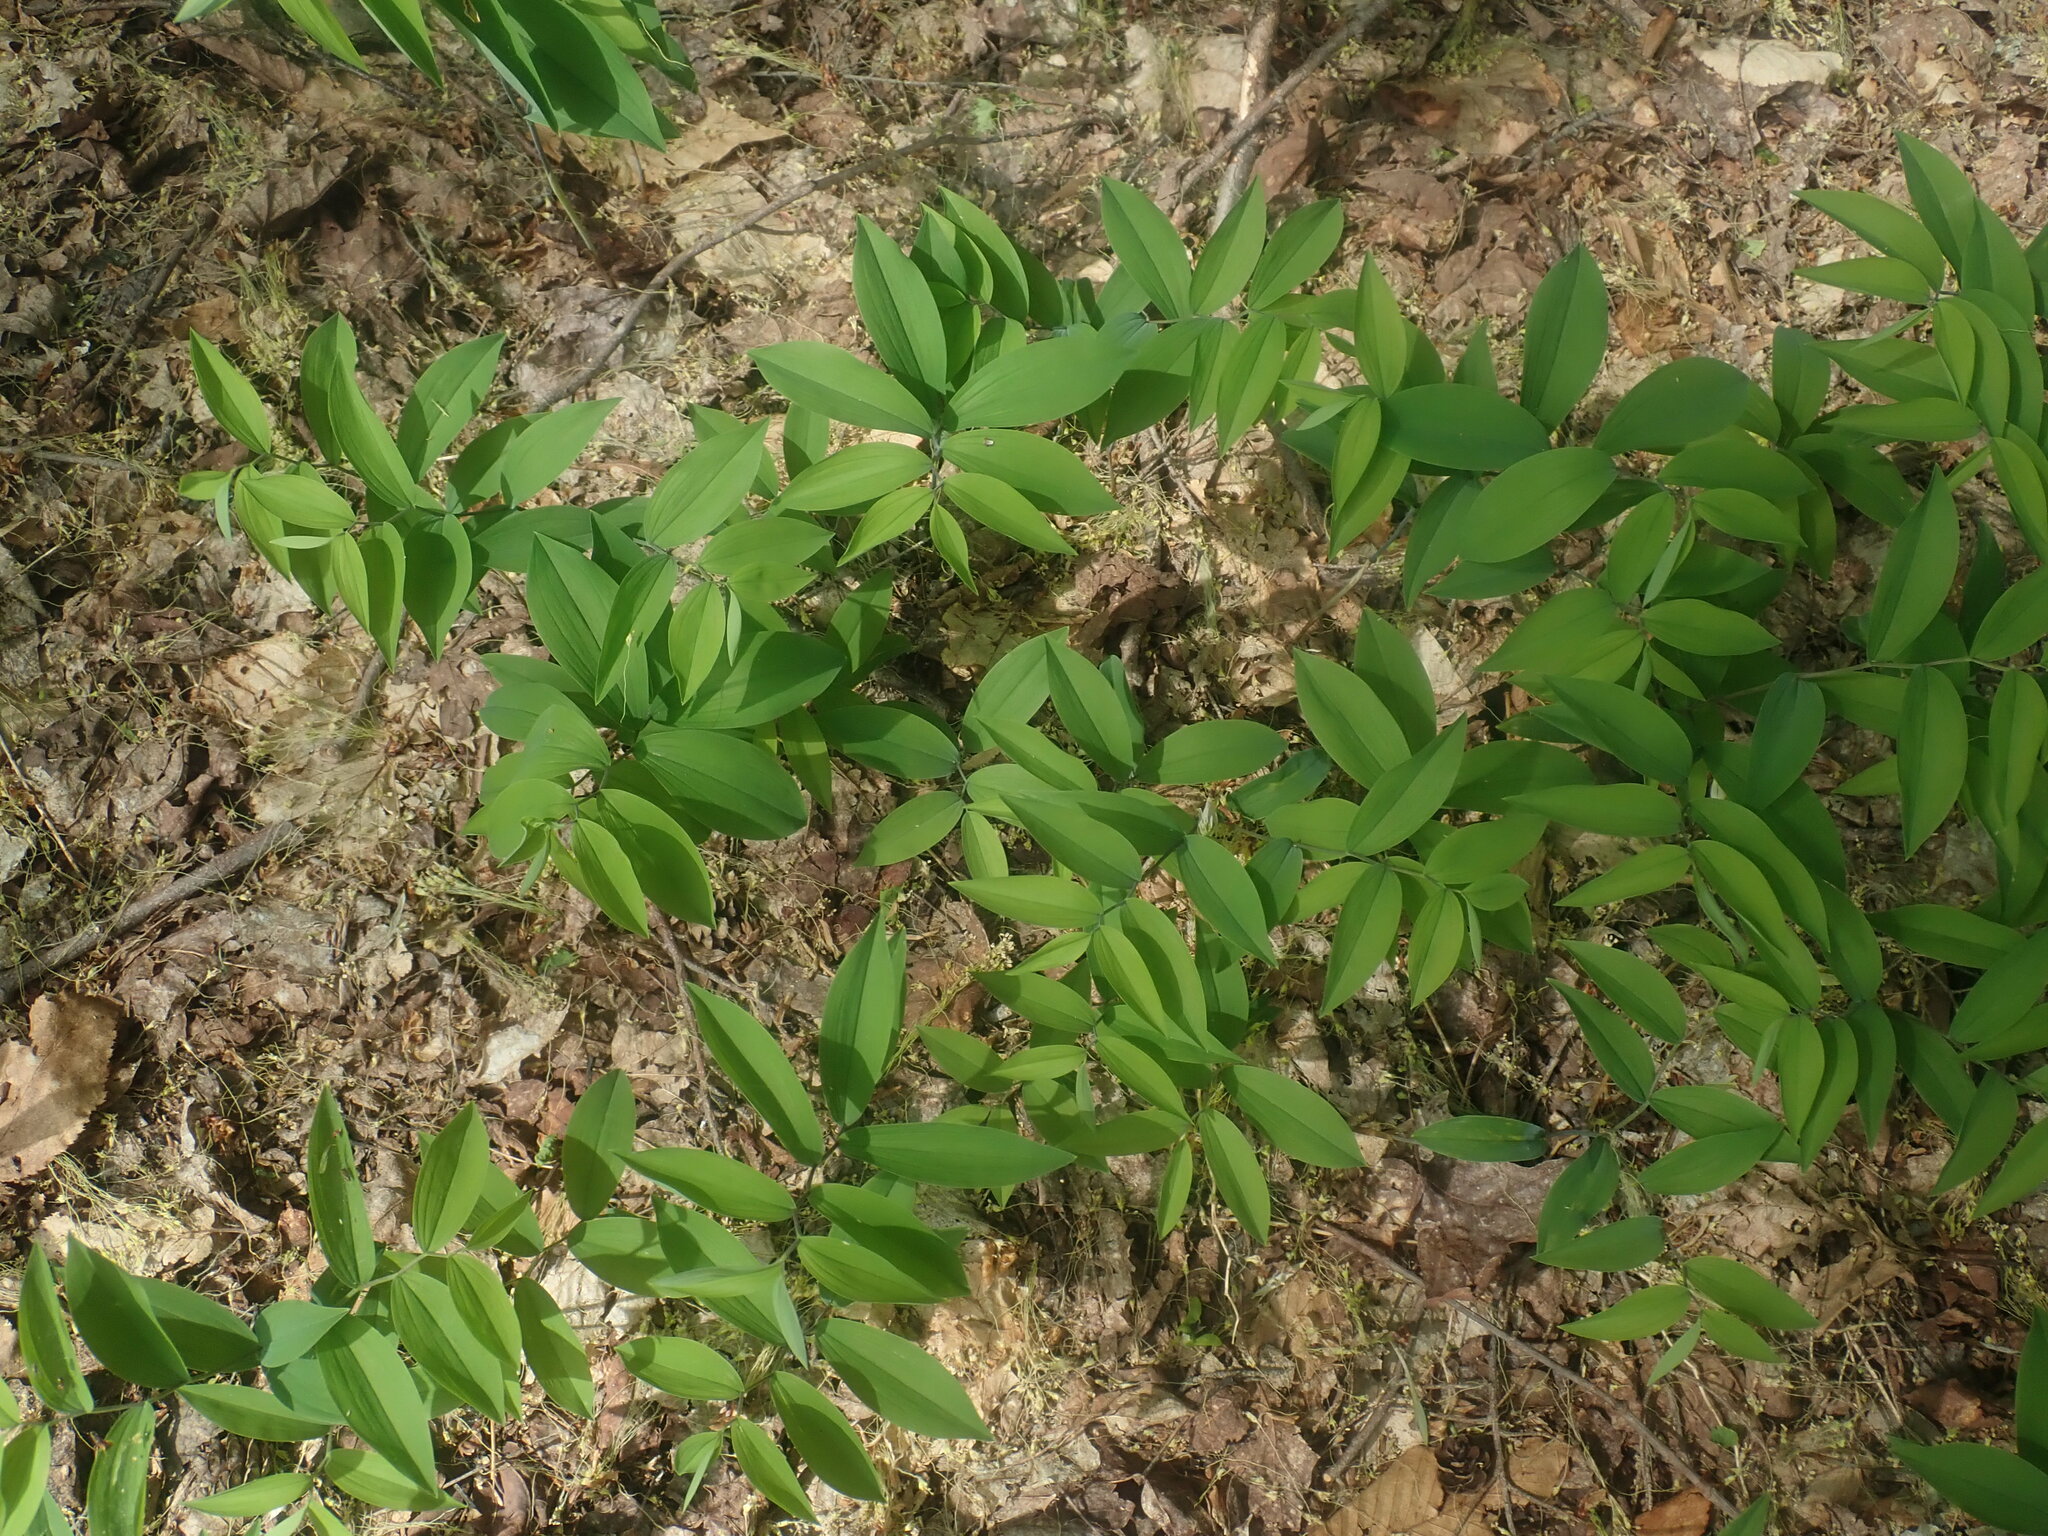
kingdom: Plantae
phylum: Tracheophyta
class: Liliopsida
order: Liliales
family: Colchicaceae
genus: Uvularia
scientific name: Uvularia sessilifolia
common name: Straw-lily
